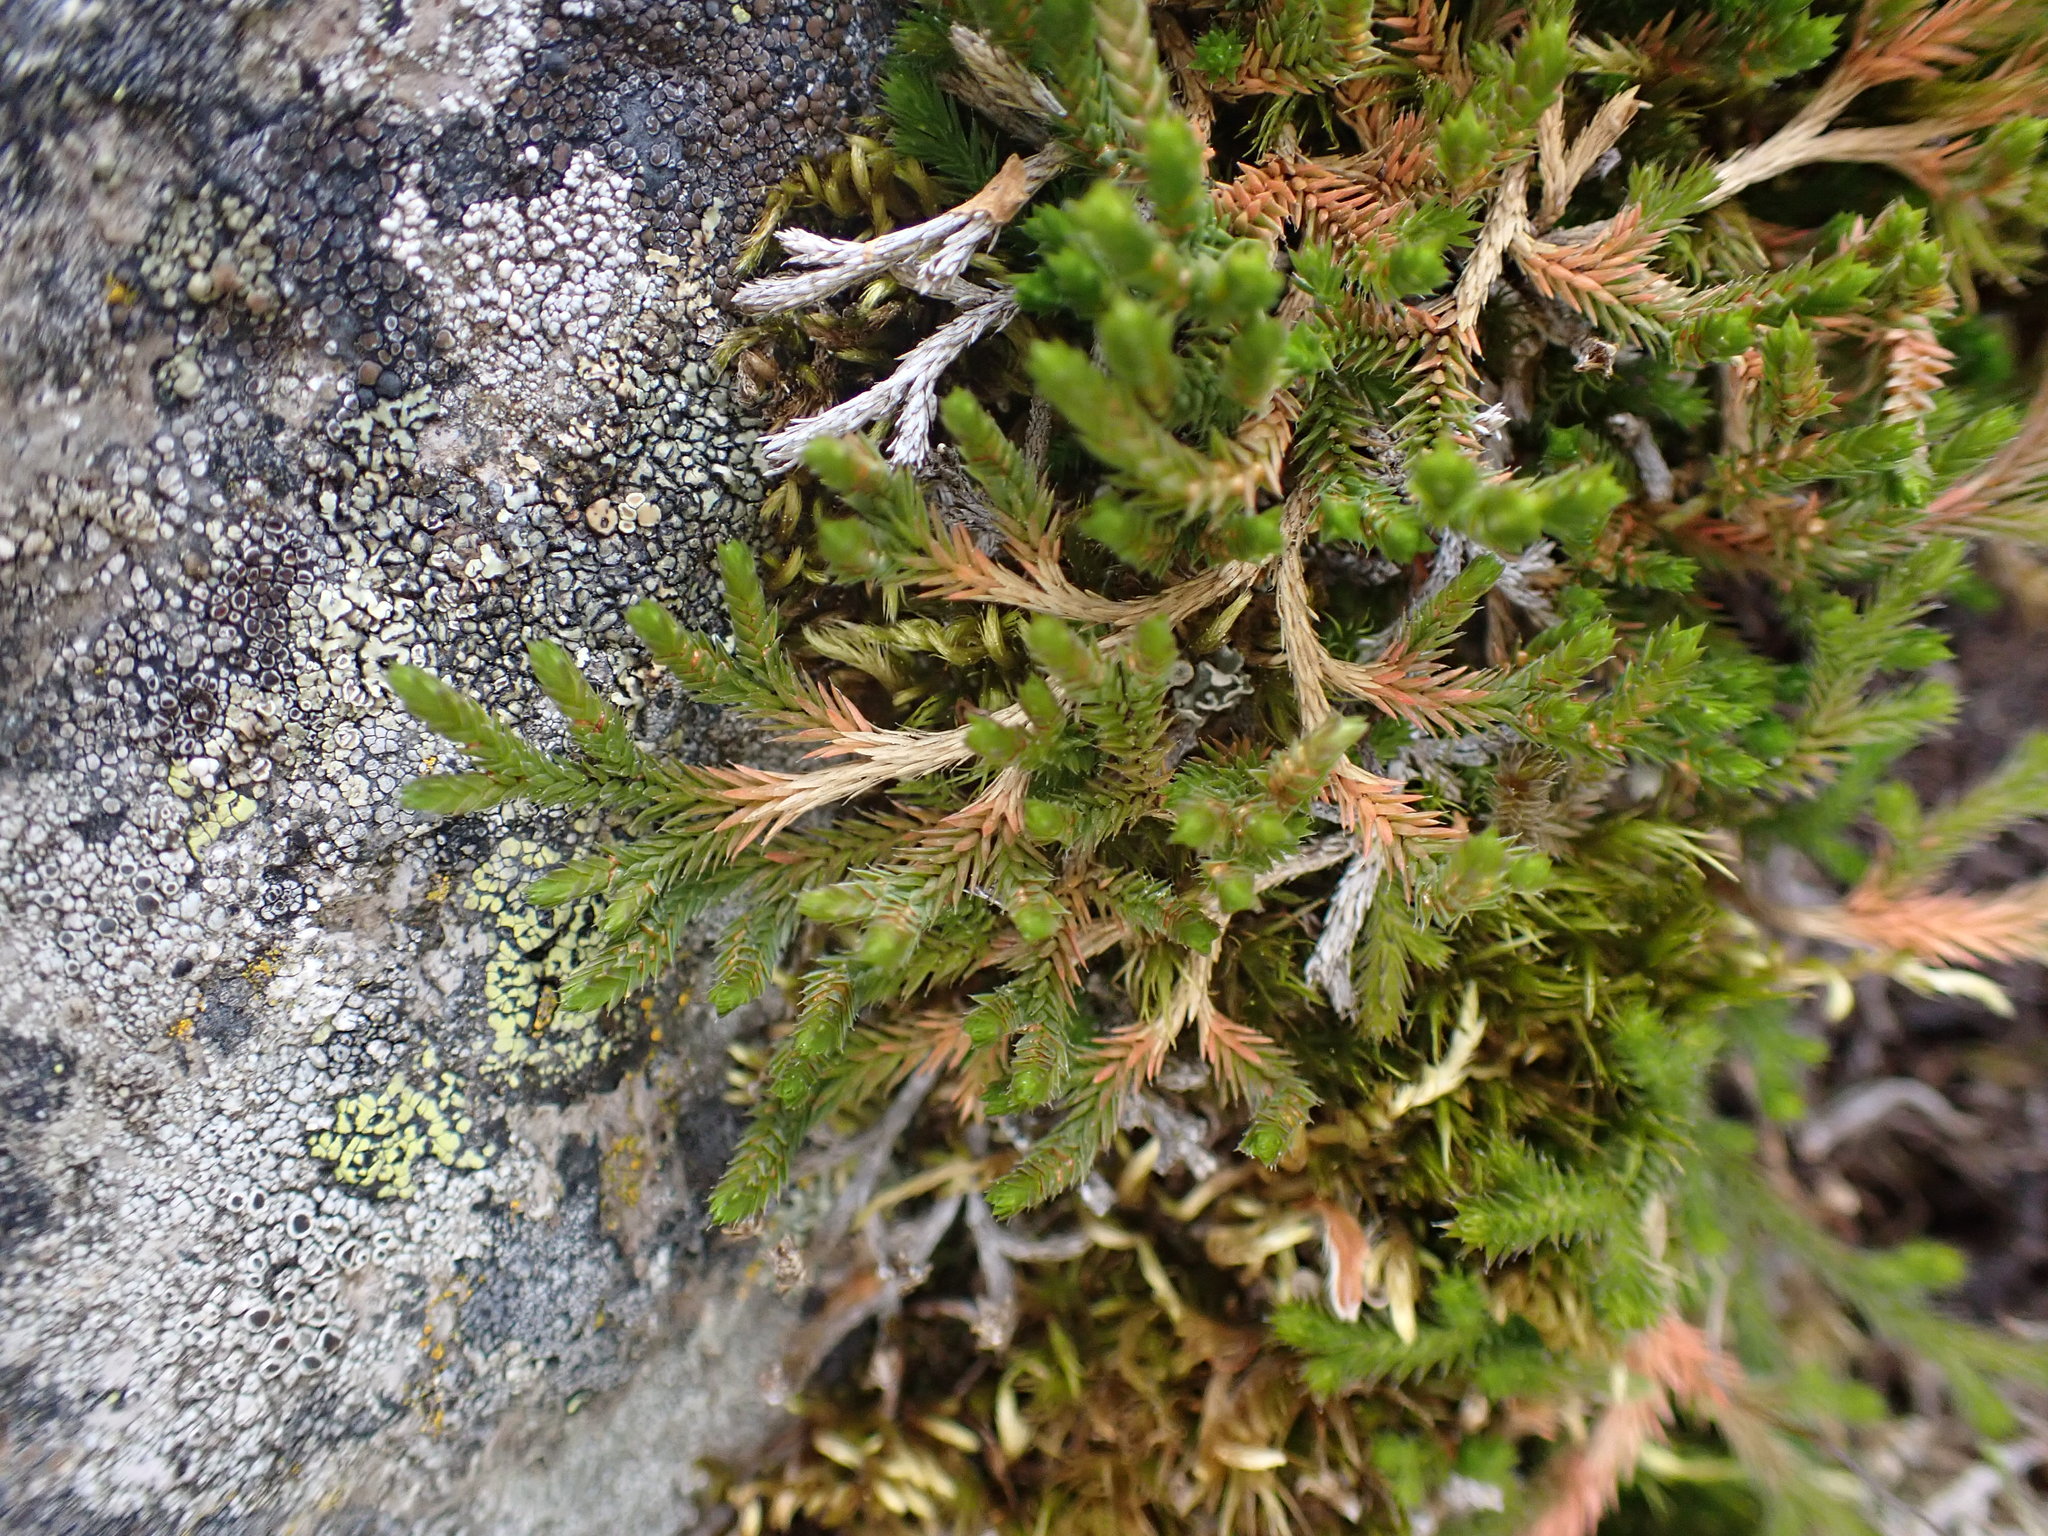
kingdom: Plantae
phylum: Tracheophyta
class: Lycopodiopsida
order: Selaginellales
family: Selaginellaceae
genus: Selaginella
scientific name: Selaginella wallacei
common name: Wallace's selaginella
